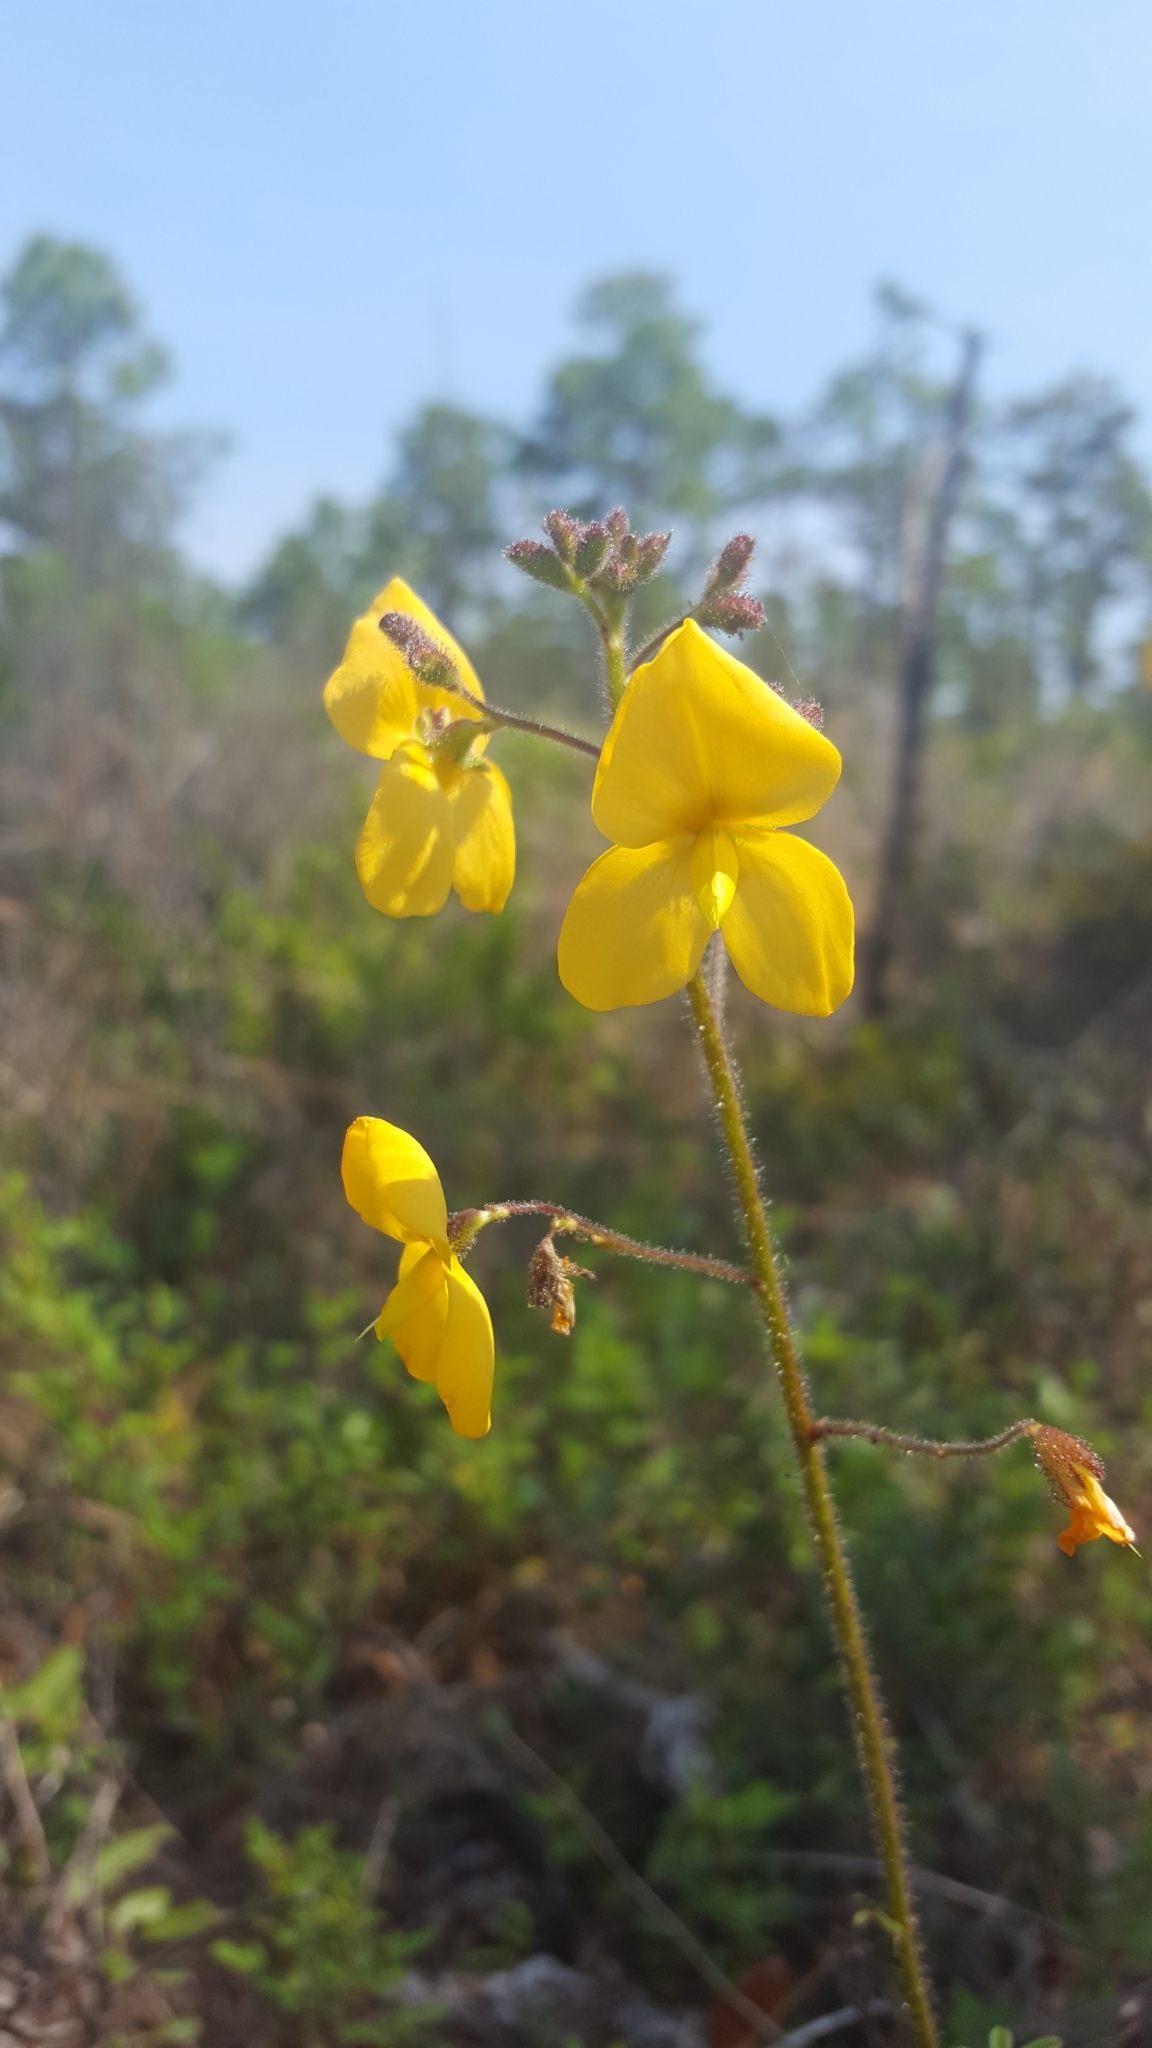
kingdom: Plantae
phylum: Tracheophyta
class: Magnoliopsida
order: Fabales
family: Fabaceae
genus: Chapmannia
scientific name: Chapmannia floridana
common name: Alicia
